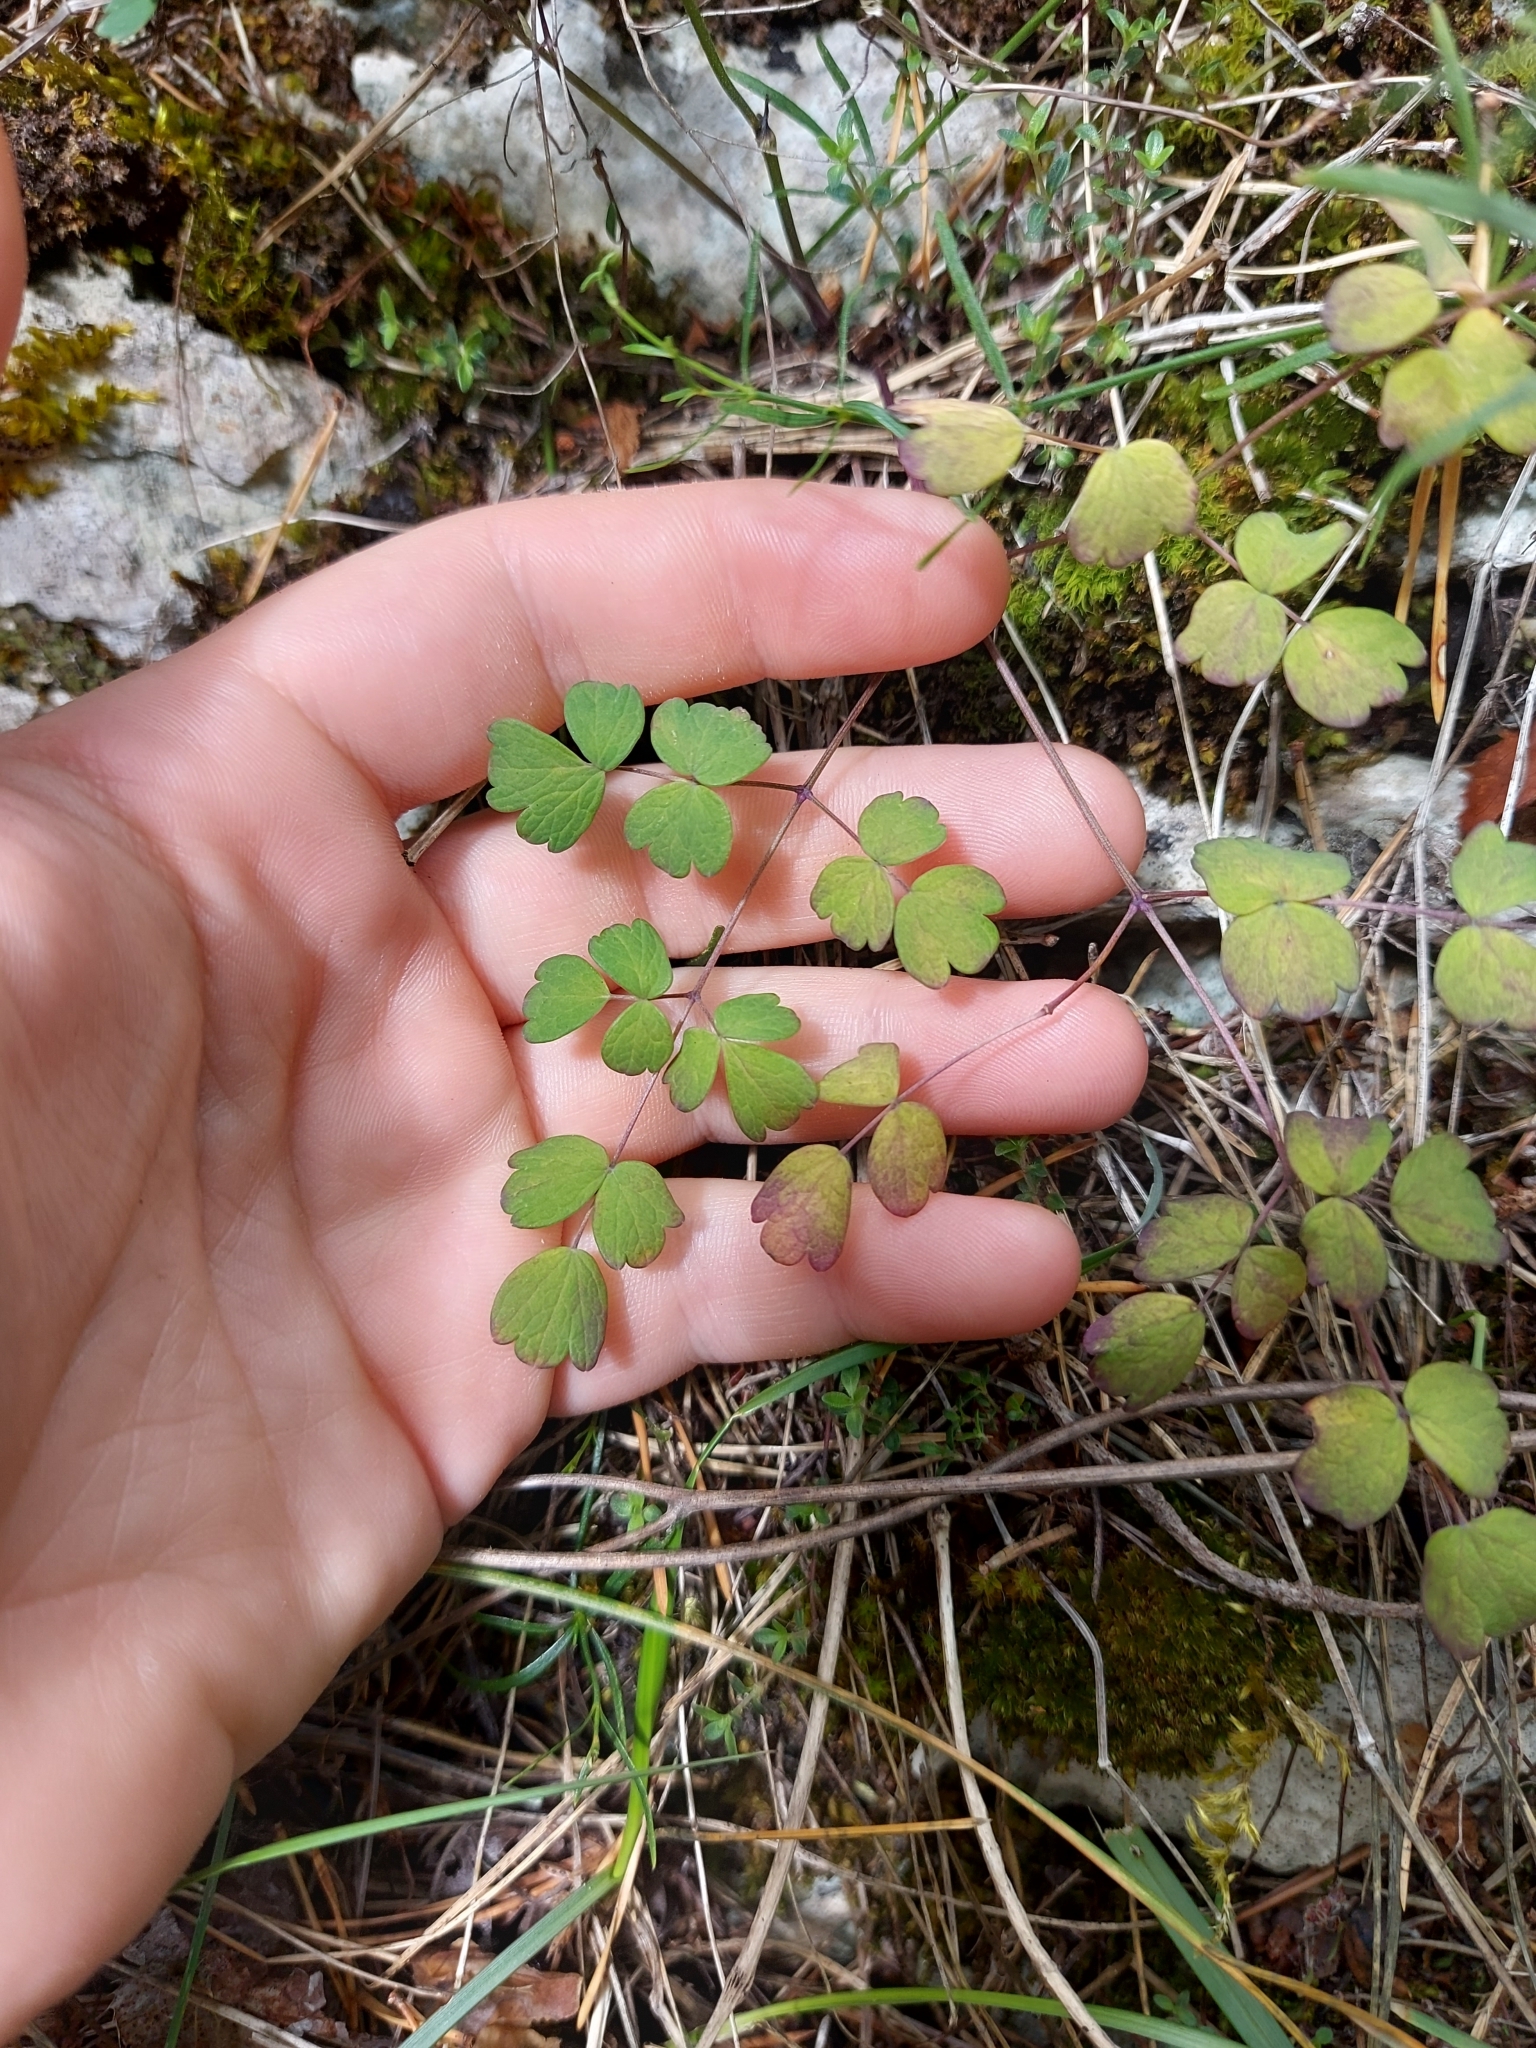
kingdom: Plantae
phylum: Tracheophyta
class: Magnoliopsida
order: Ranunculales
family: Ranunculaceae
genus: Thalictrum
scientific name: Thalictrum minus
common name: Lesser meadow-rue
